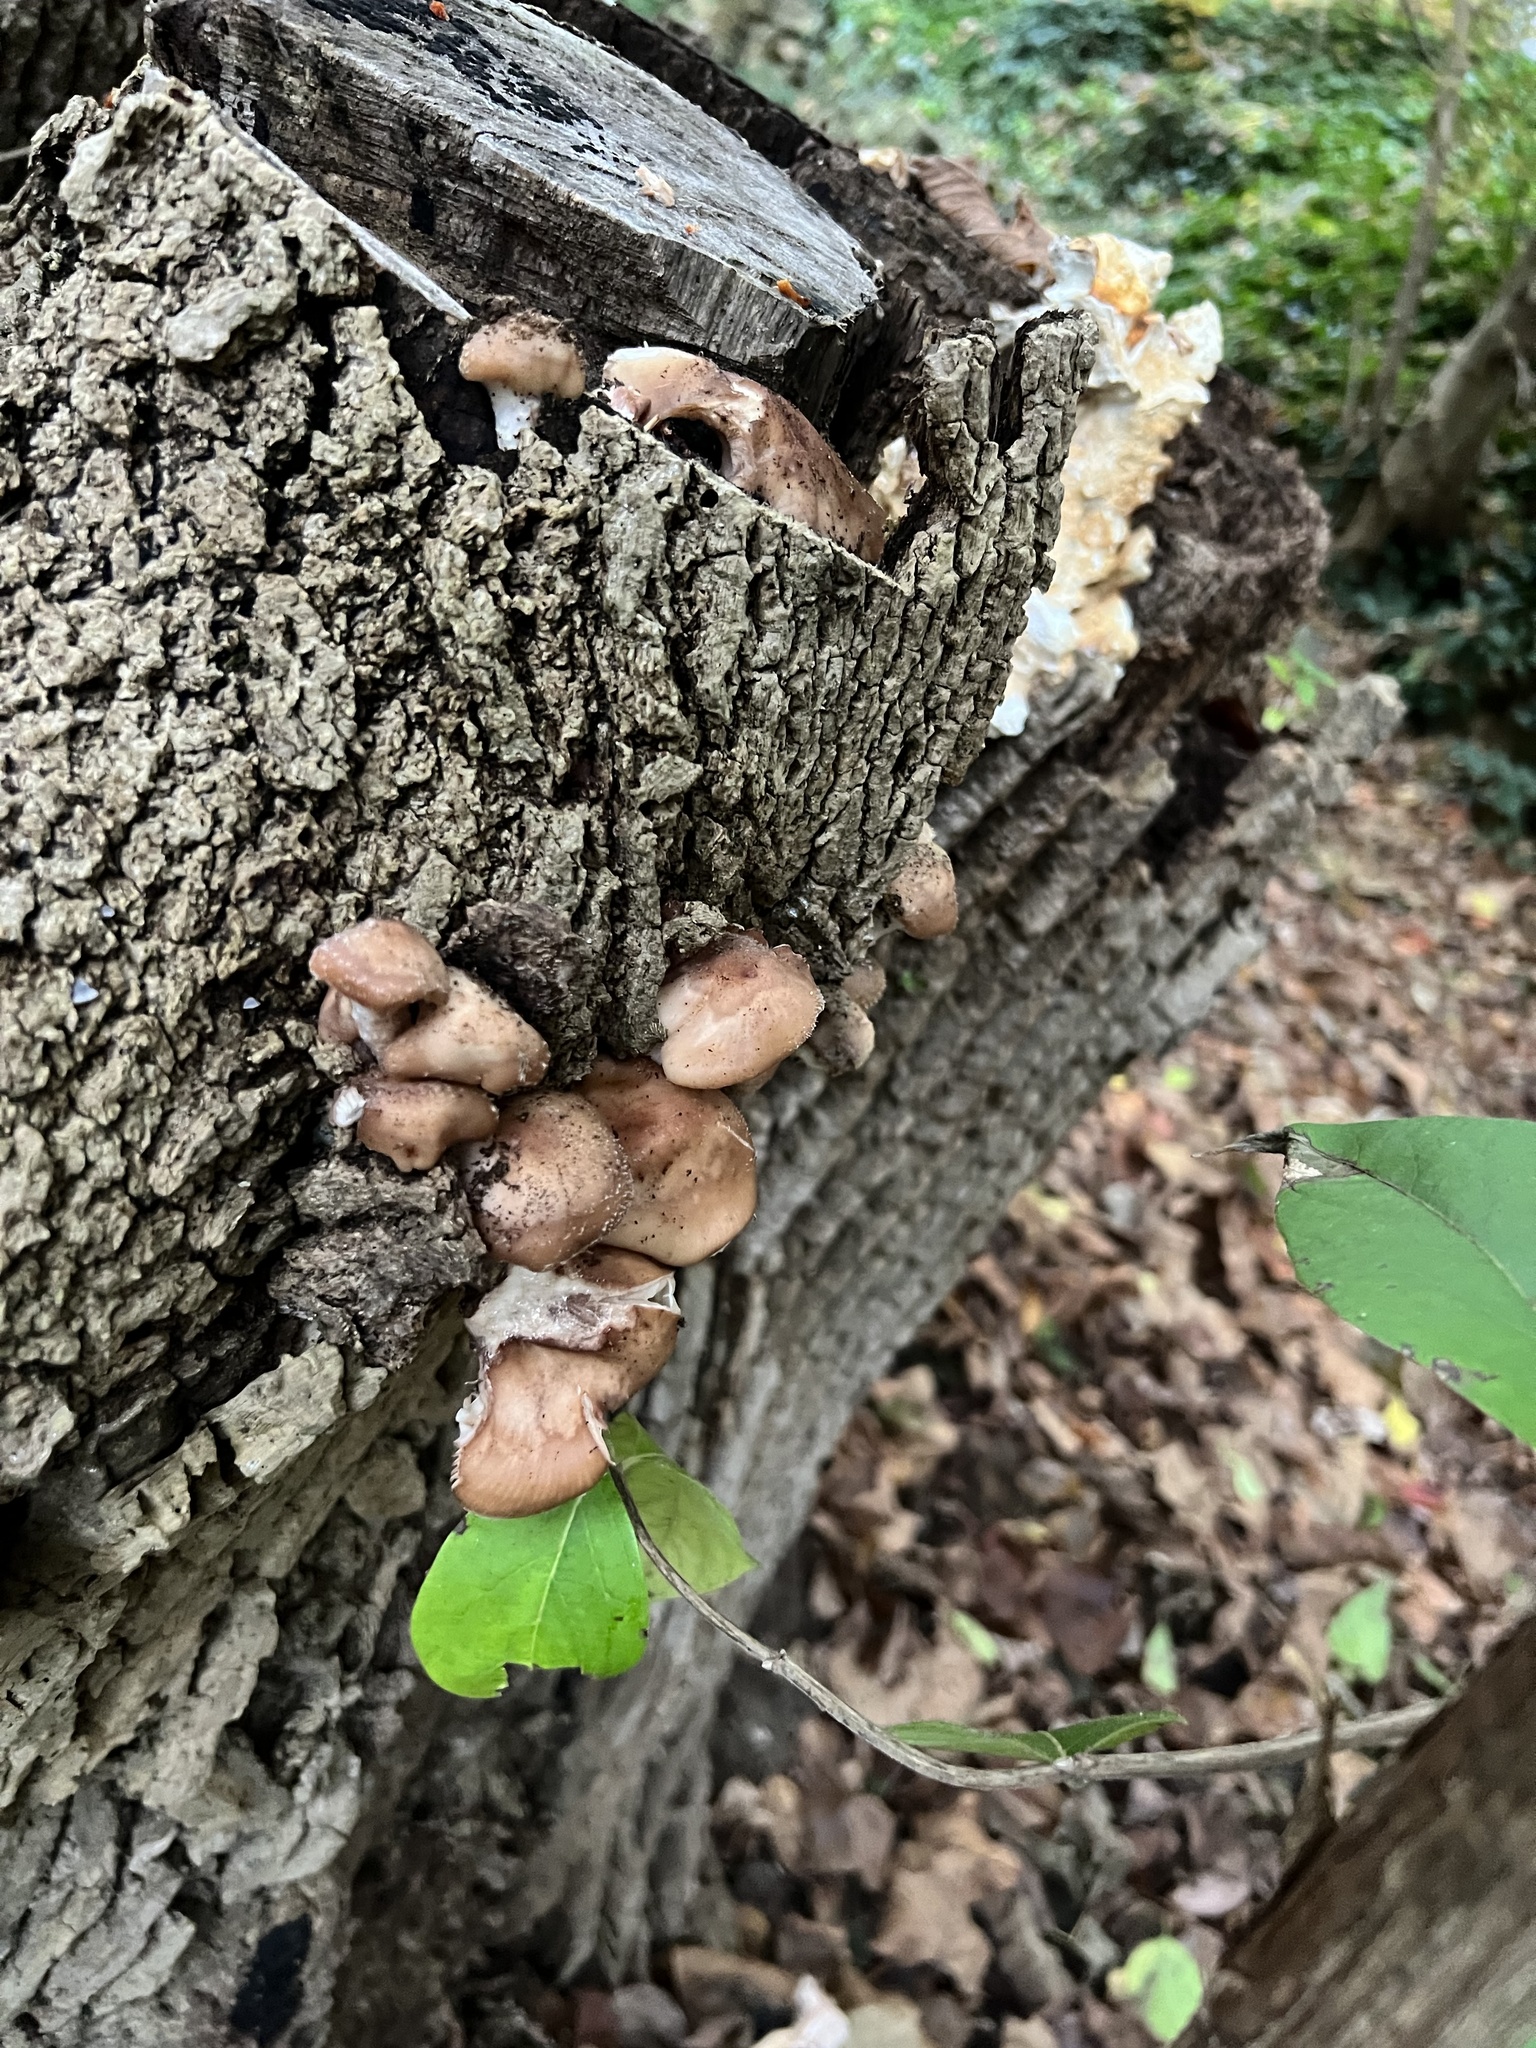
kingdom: Fungi
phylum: Basidiomycota
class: Agaricomycetes
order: Agaricales
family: Physalacriaceae
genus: Armillaria
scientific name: Armillaria gallica
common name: Bulbous honey fungus
